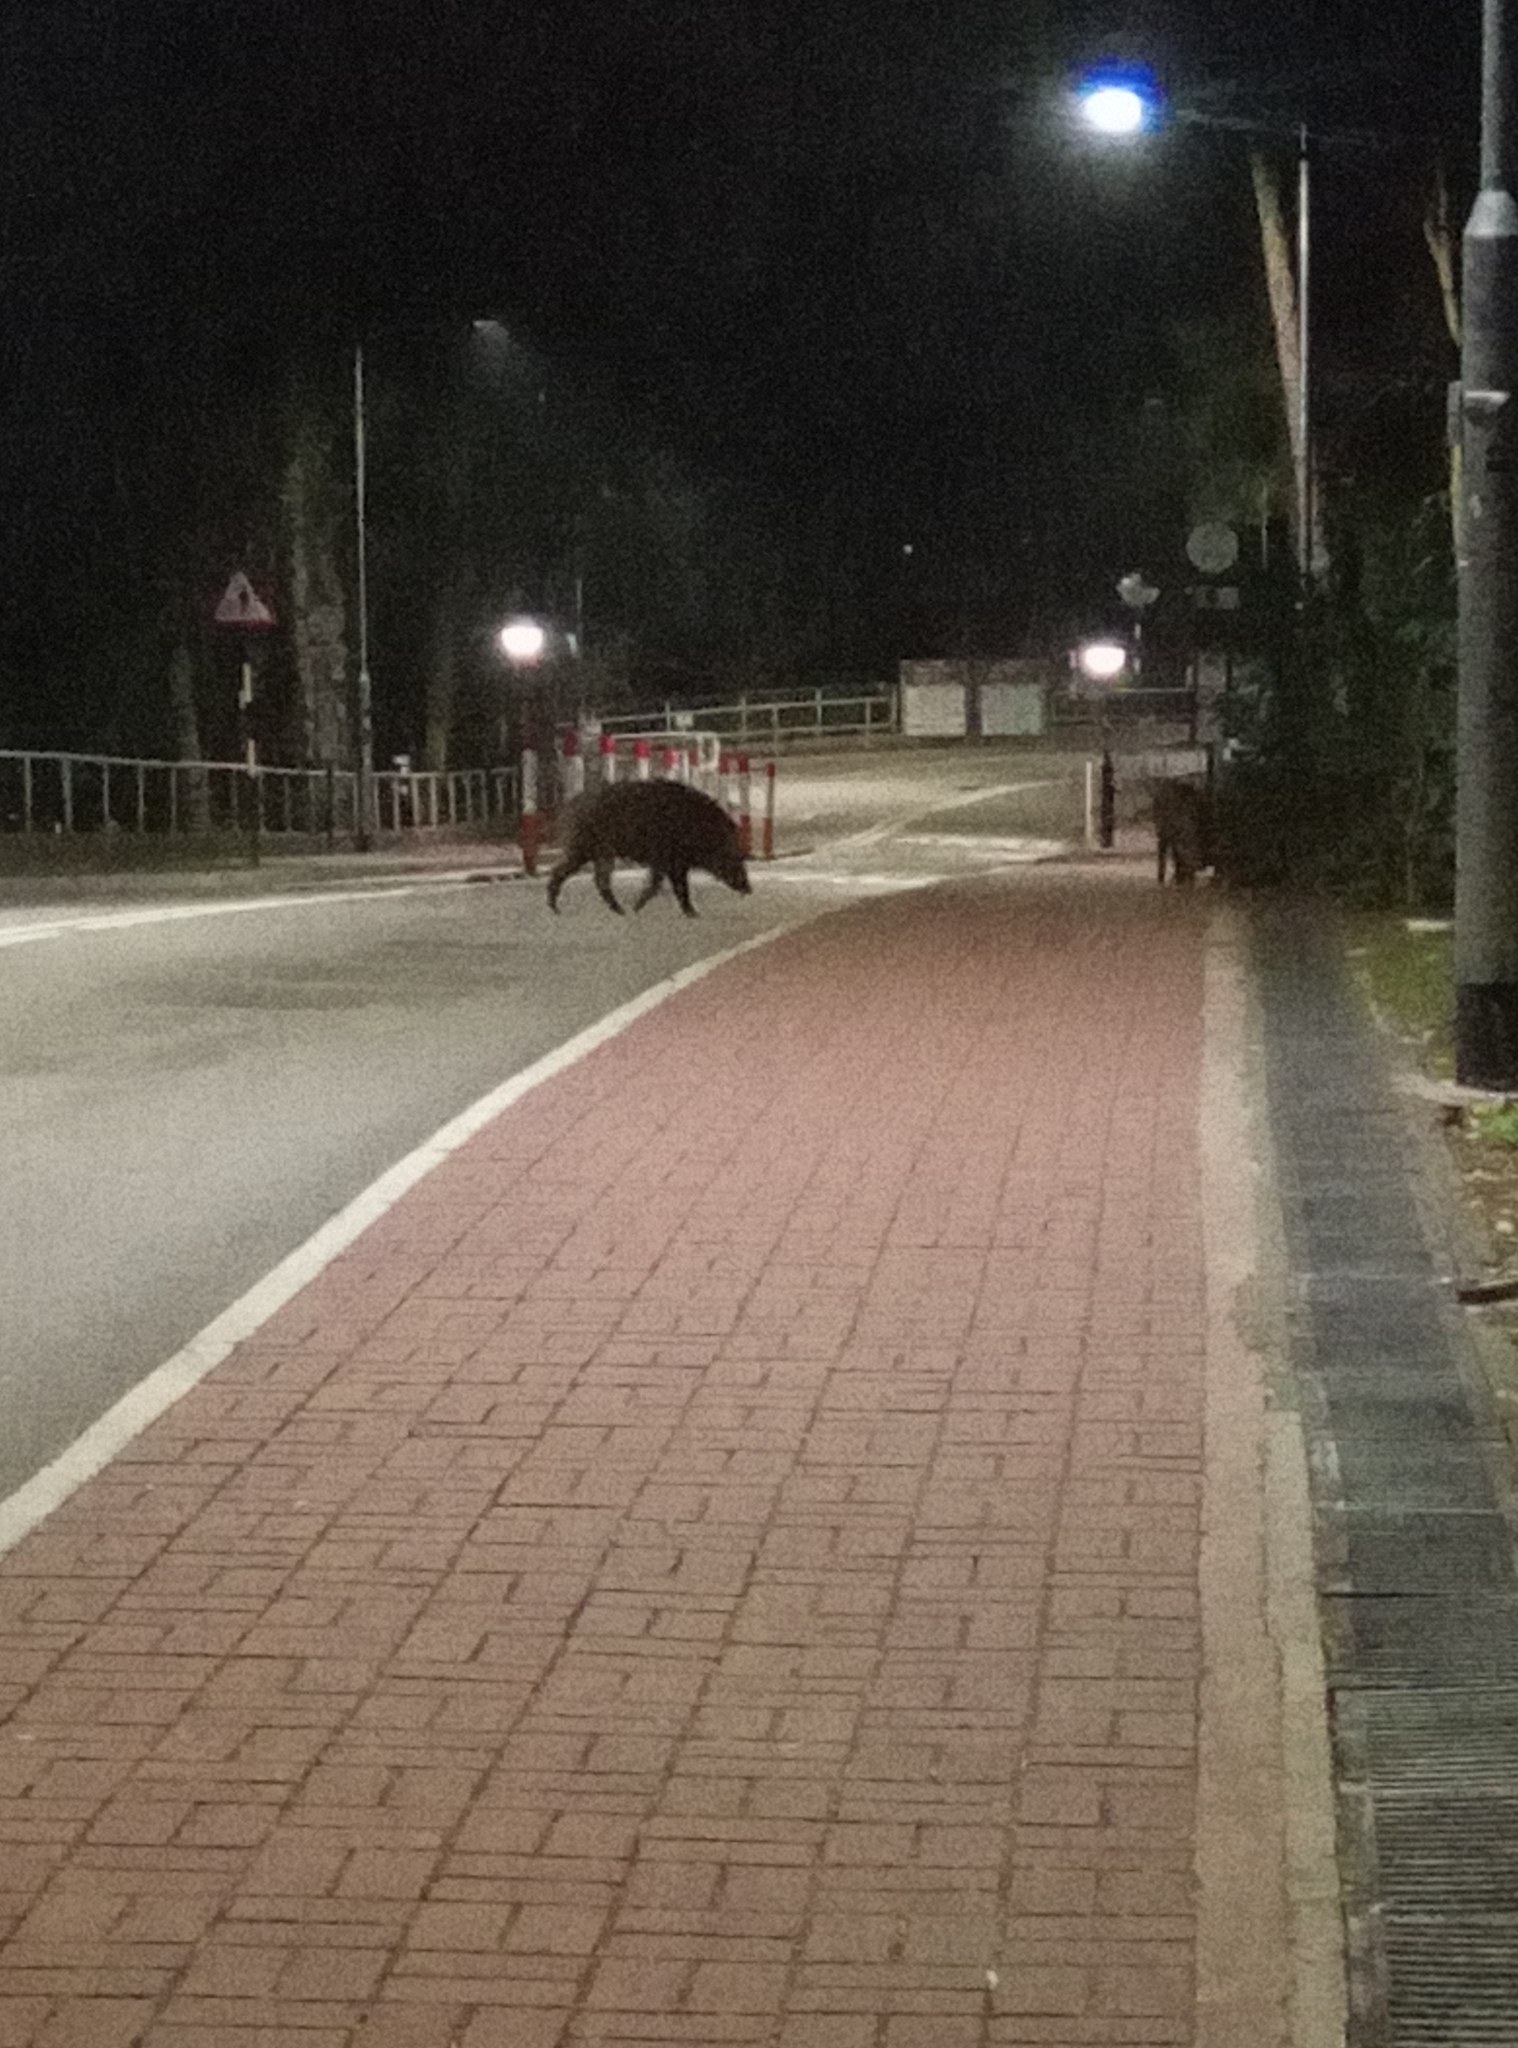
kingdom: Animalia
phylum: Chordata
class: Mammalia
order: Artiodactyla
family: Suidae
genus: Sus
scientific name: Sus scrofa
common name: Wild boar
